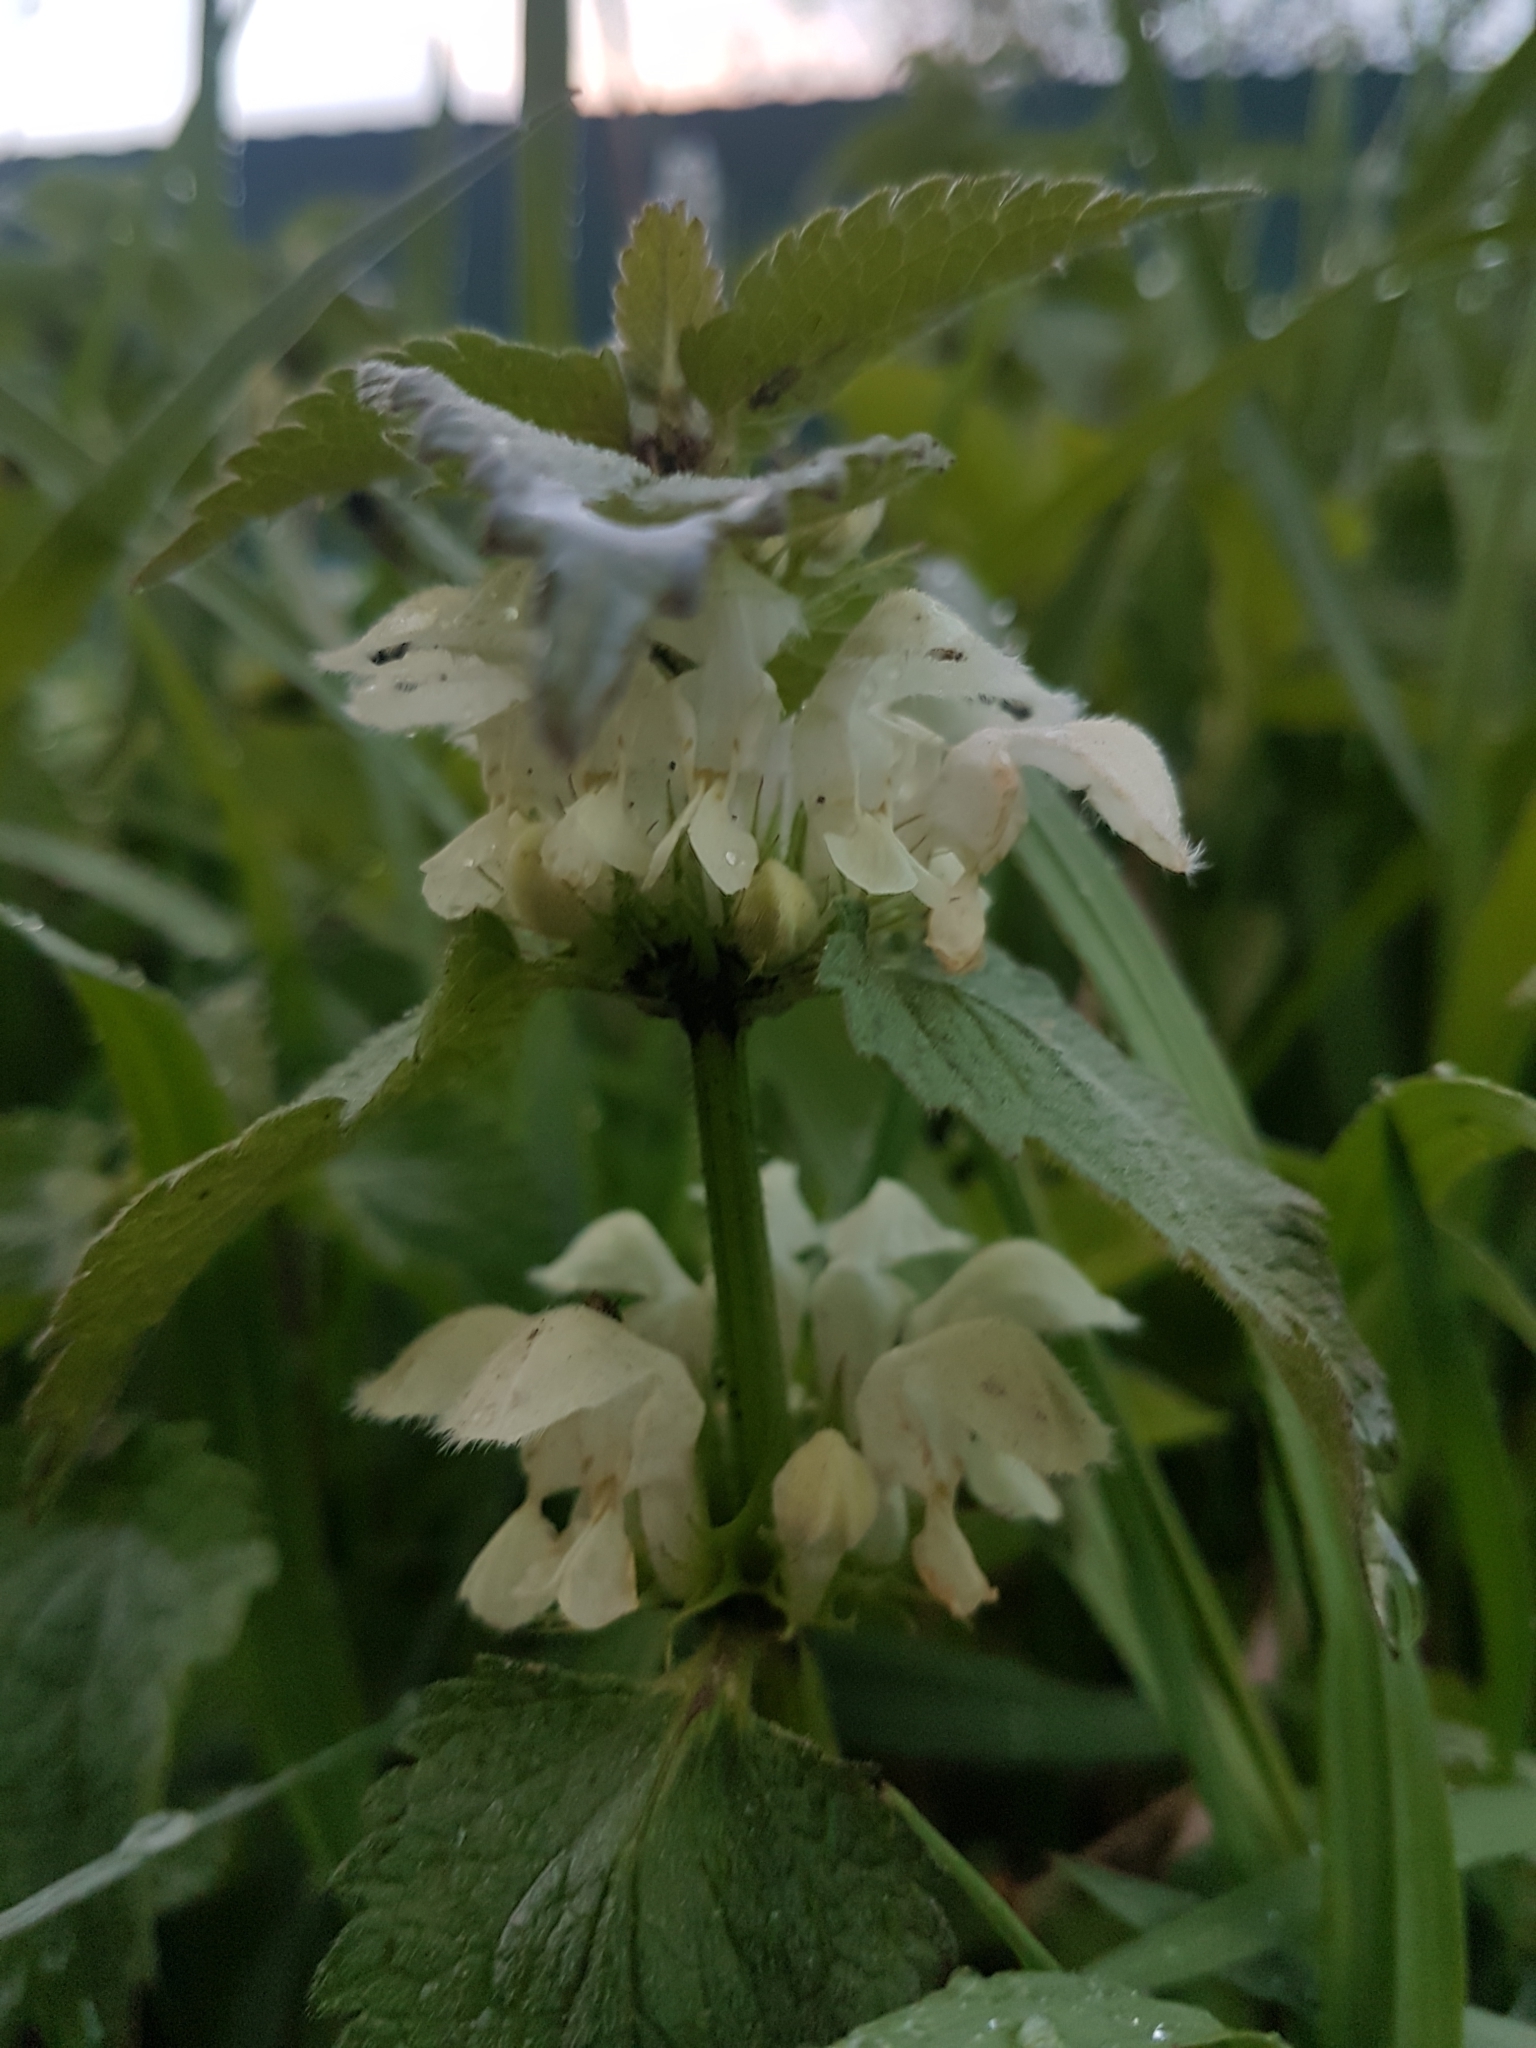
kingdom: Plantae
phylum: Tracheophyta
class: Magnoliopsida
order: Lamiales
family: Lamiaceae
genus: Lamium
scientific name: Lamium album
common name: White dead-nettle
